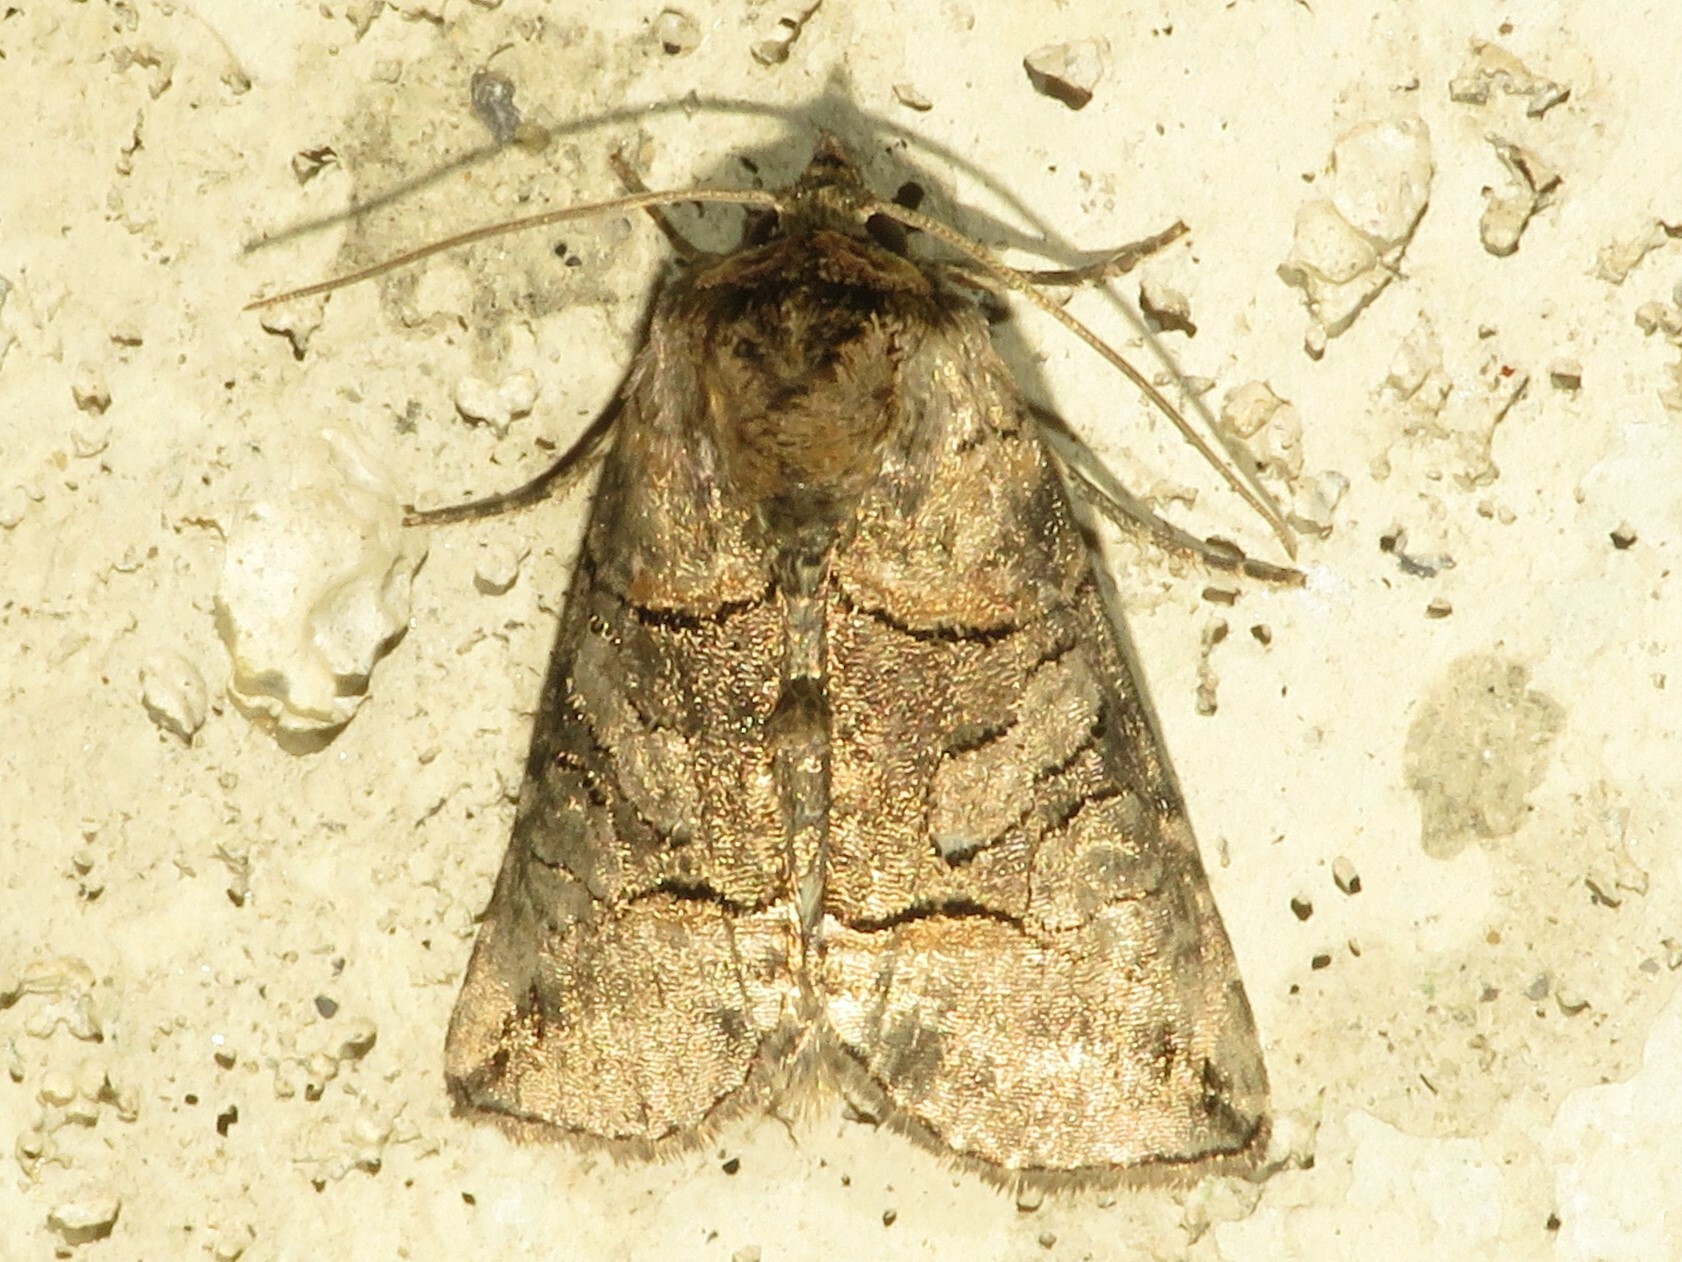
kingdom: Animalia
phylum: Arthropoda
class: Insecta
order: Lepidoptera
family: Noctuidae
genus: Abrostola
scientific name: Abrostola urentis
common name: Spectacled nettle moth
